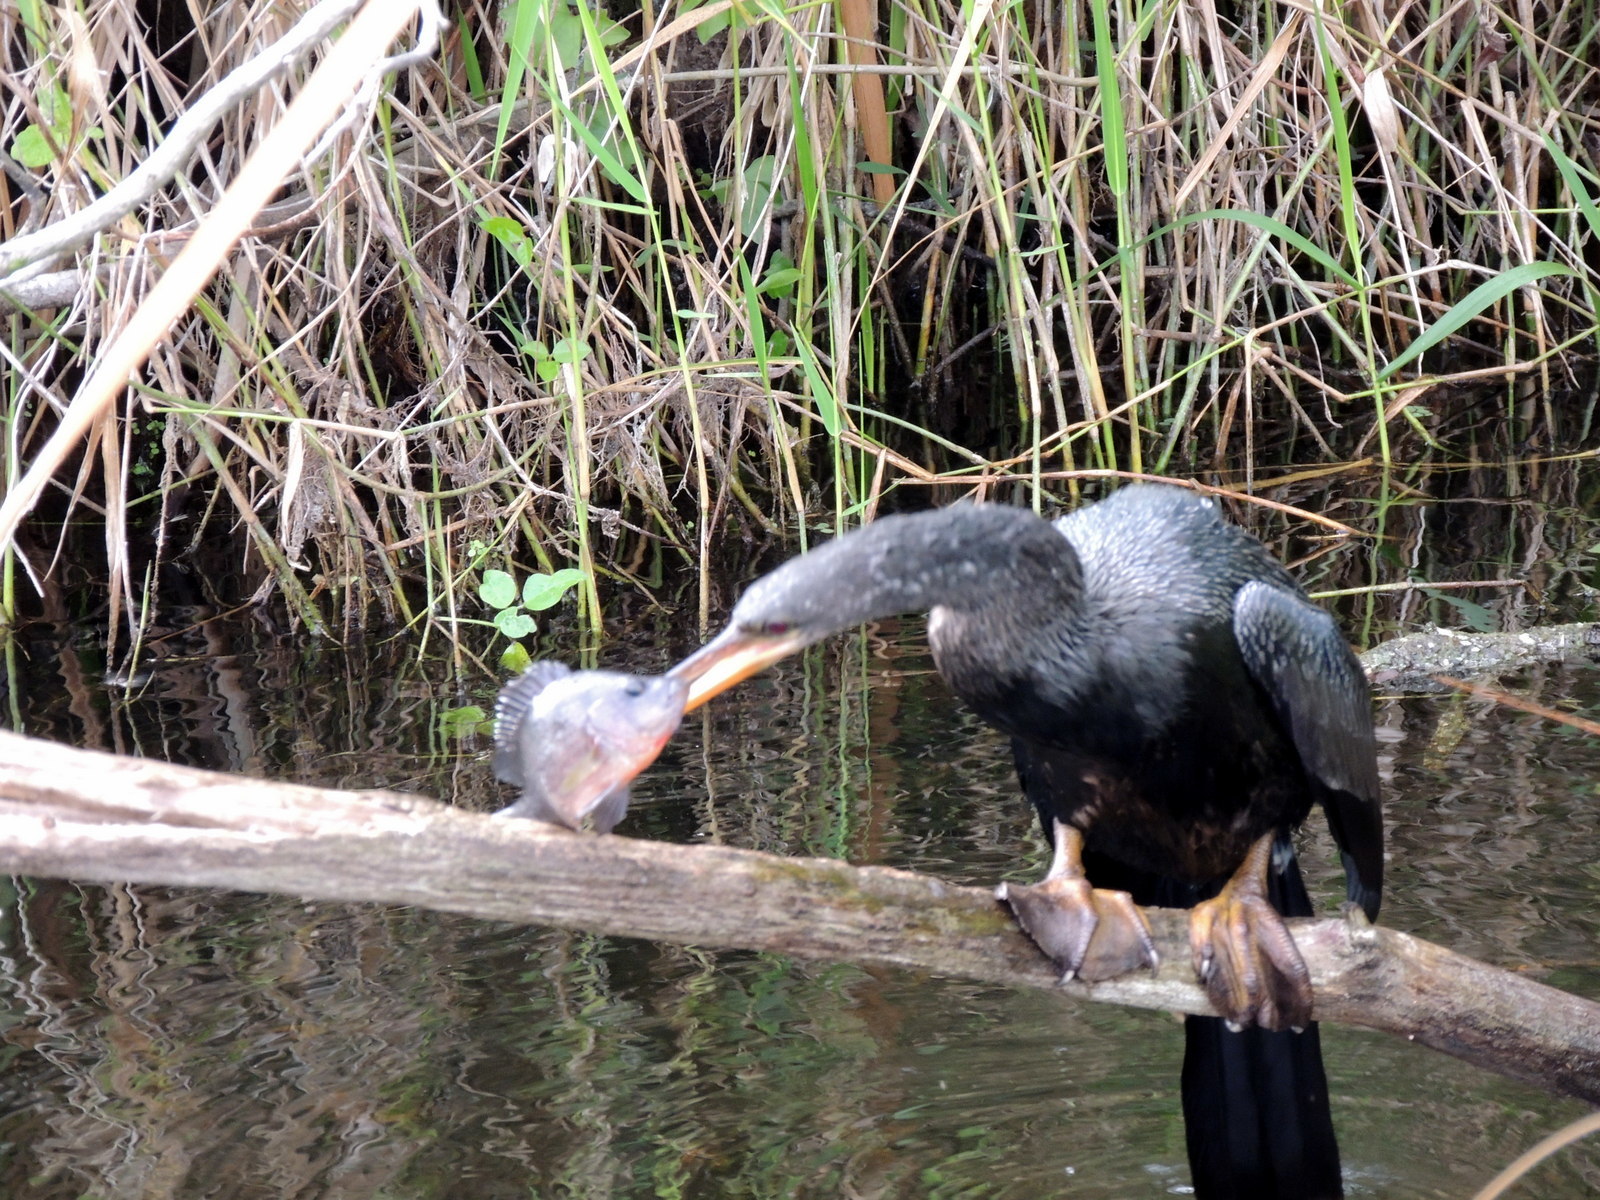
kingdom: Animalia
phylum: Chordata
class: Aves
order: Suliformes
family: Anhingidae
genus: Anhinga
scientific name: Anhinga anhinga
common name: Anhinga
